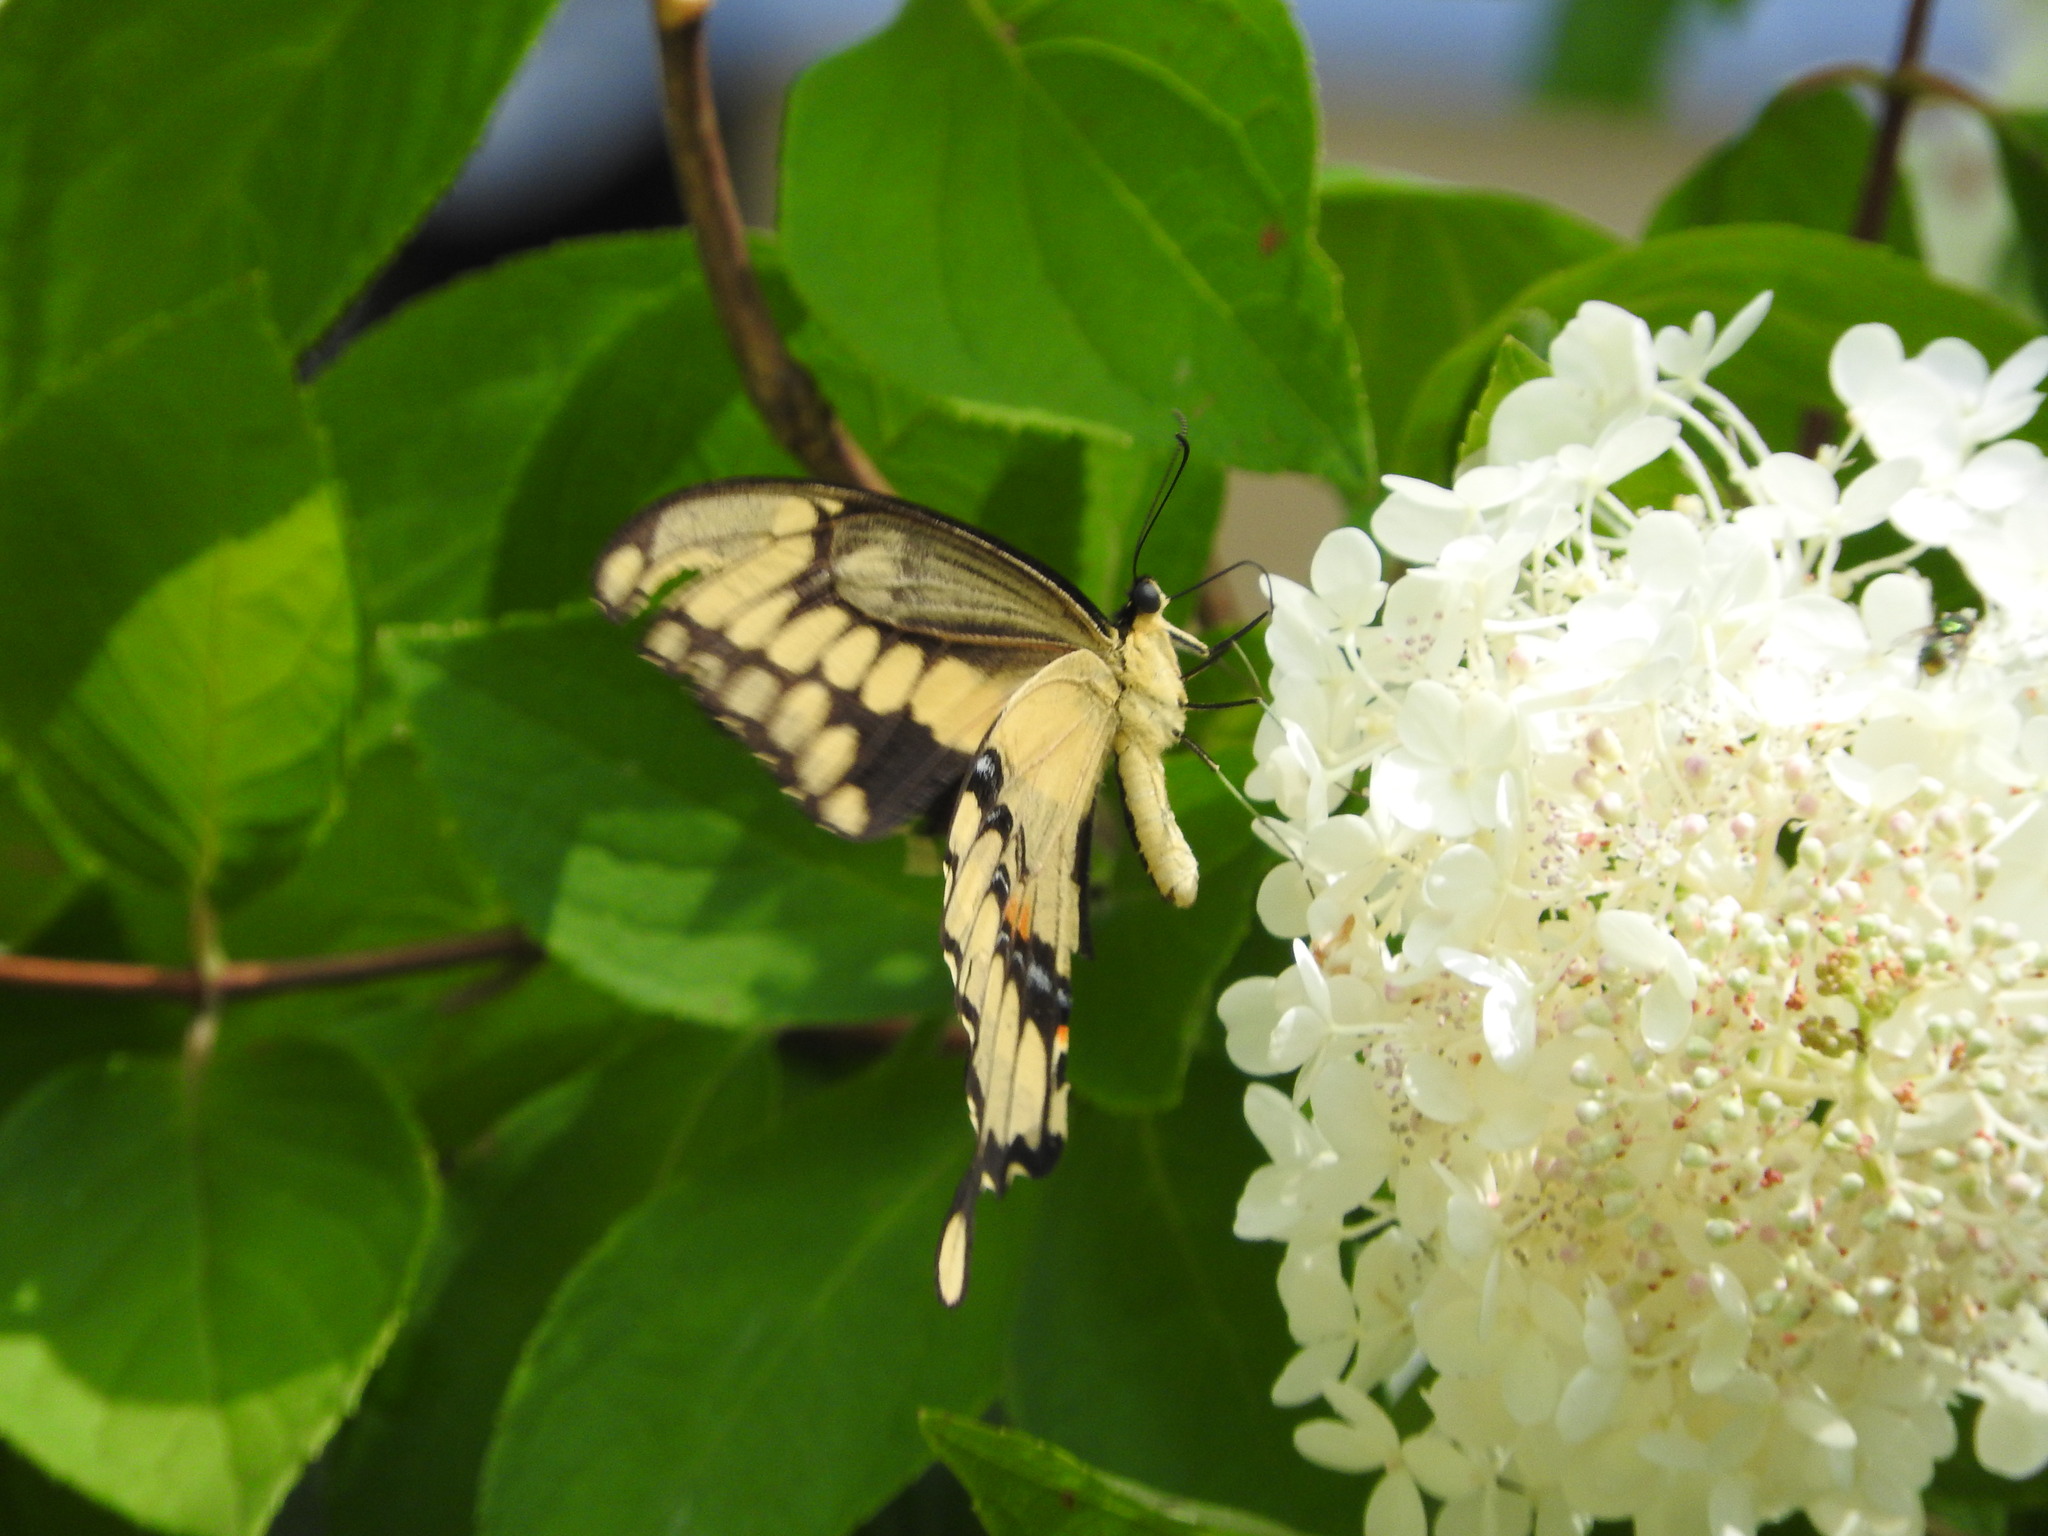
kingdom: Animalia
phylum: Arthropoda
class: Insecta
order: Lepidoptera
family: Papilionidae
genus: Papilio
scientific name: Papilio cresphontes
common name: Giant swallowtail
